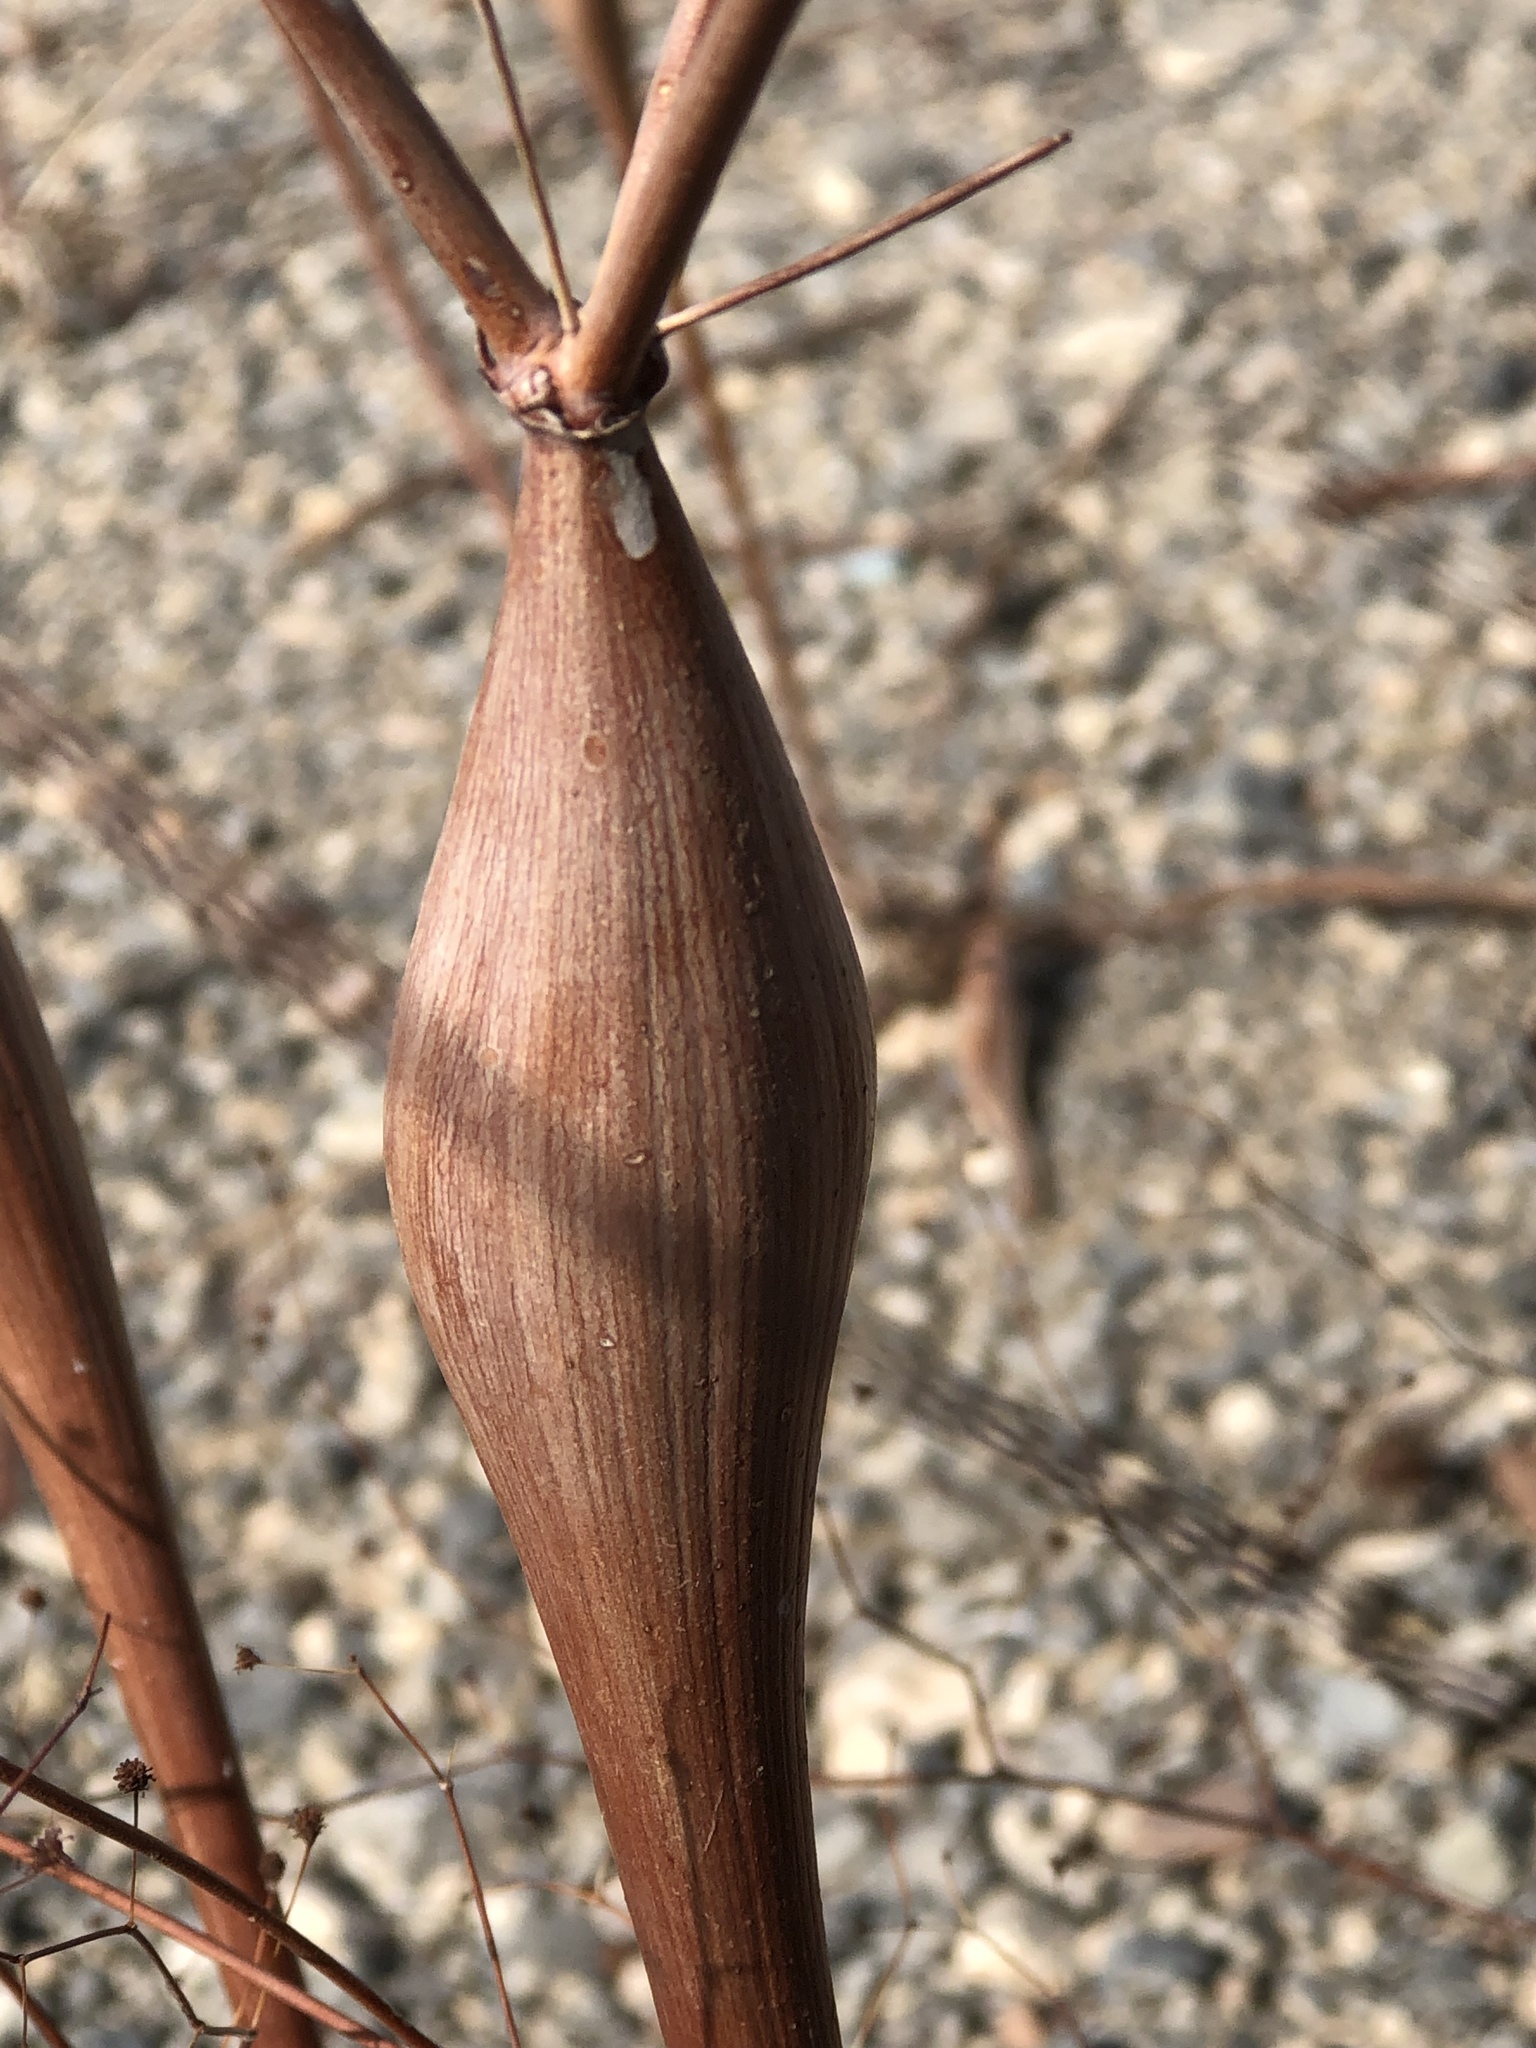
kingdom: Plantae
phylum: Tracheophyta
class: Magnoliopsida
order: Caryophyllales
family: Polygonaceae
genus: Eriogonum
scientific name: Eriogonum inflatum
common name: Desert trumpet
